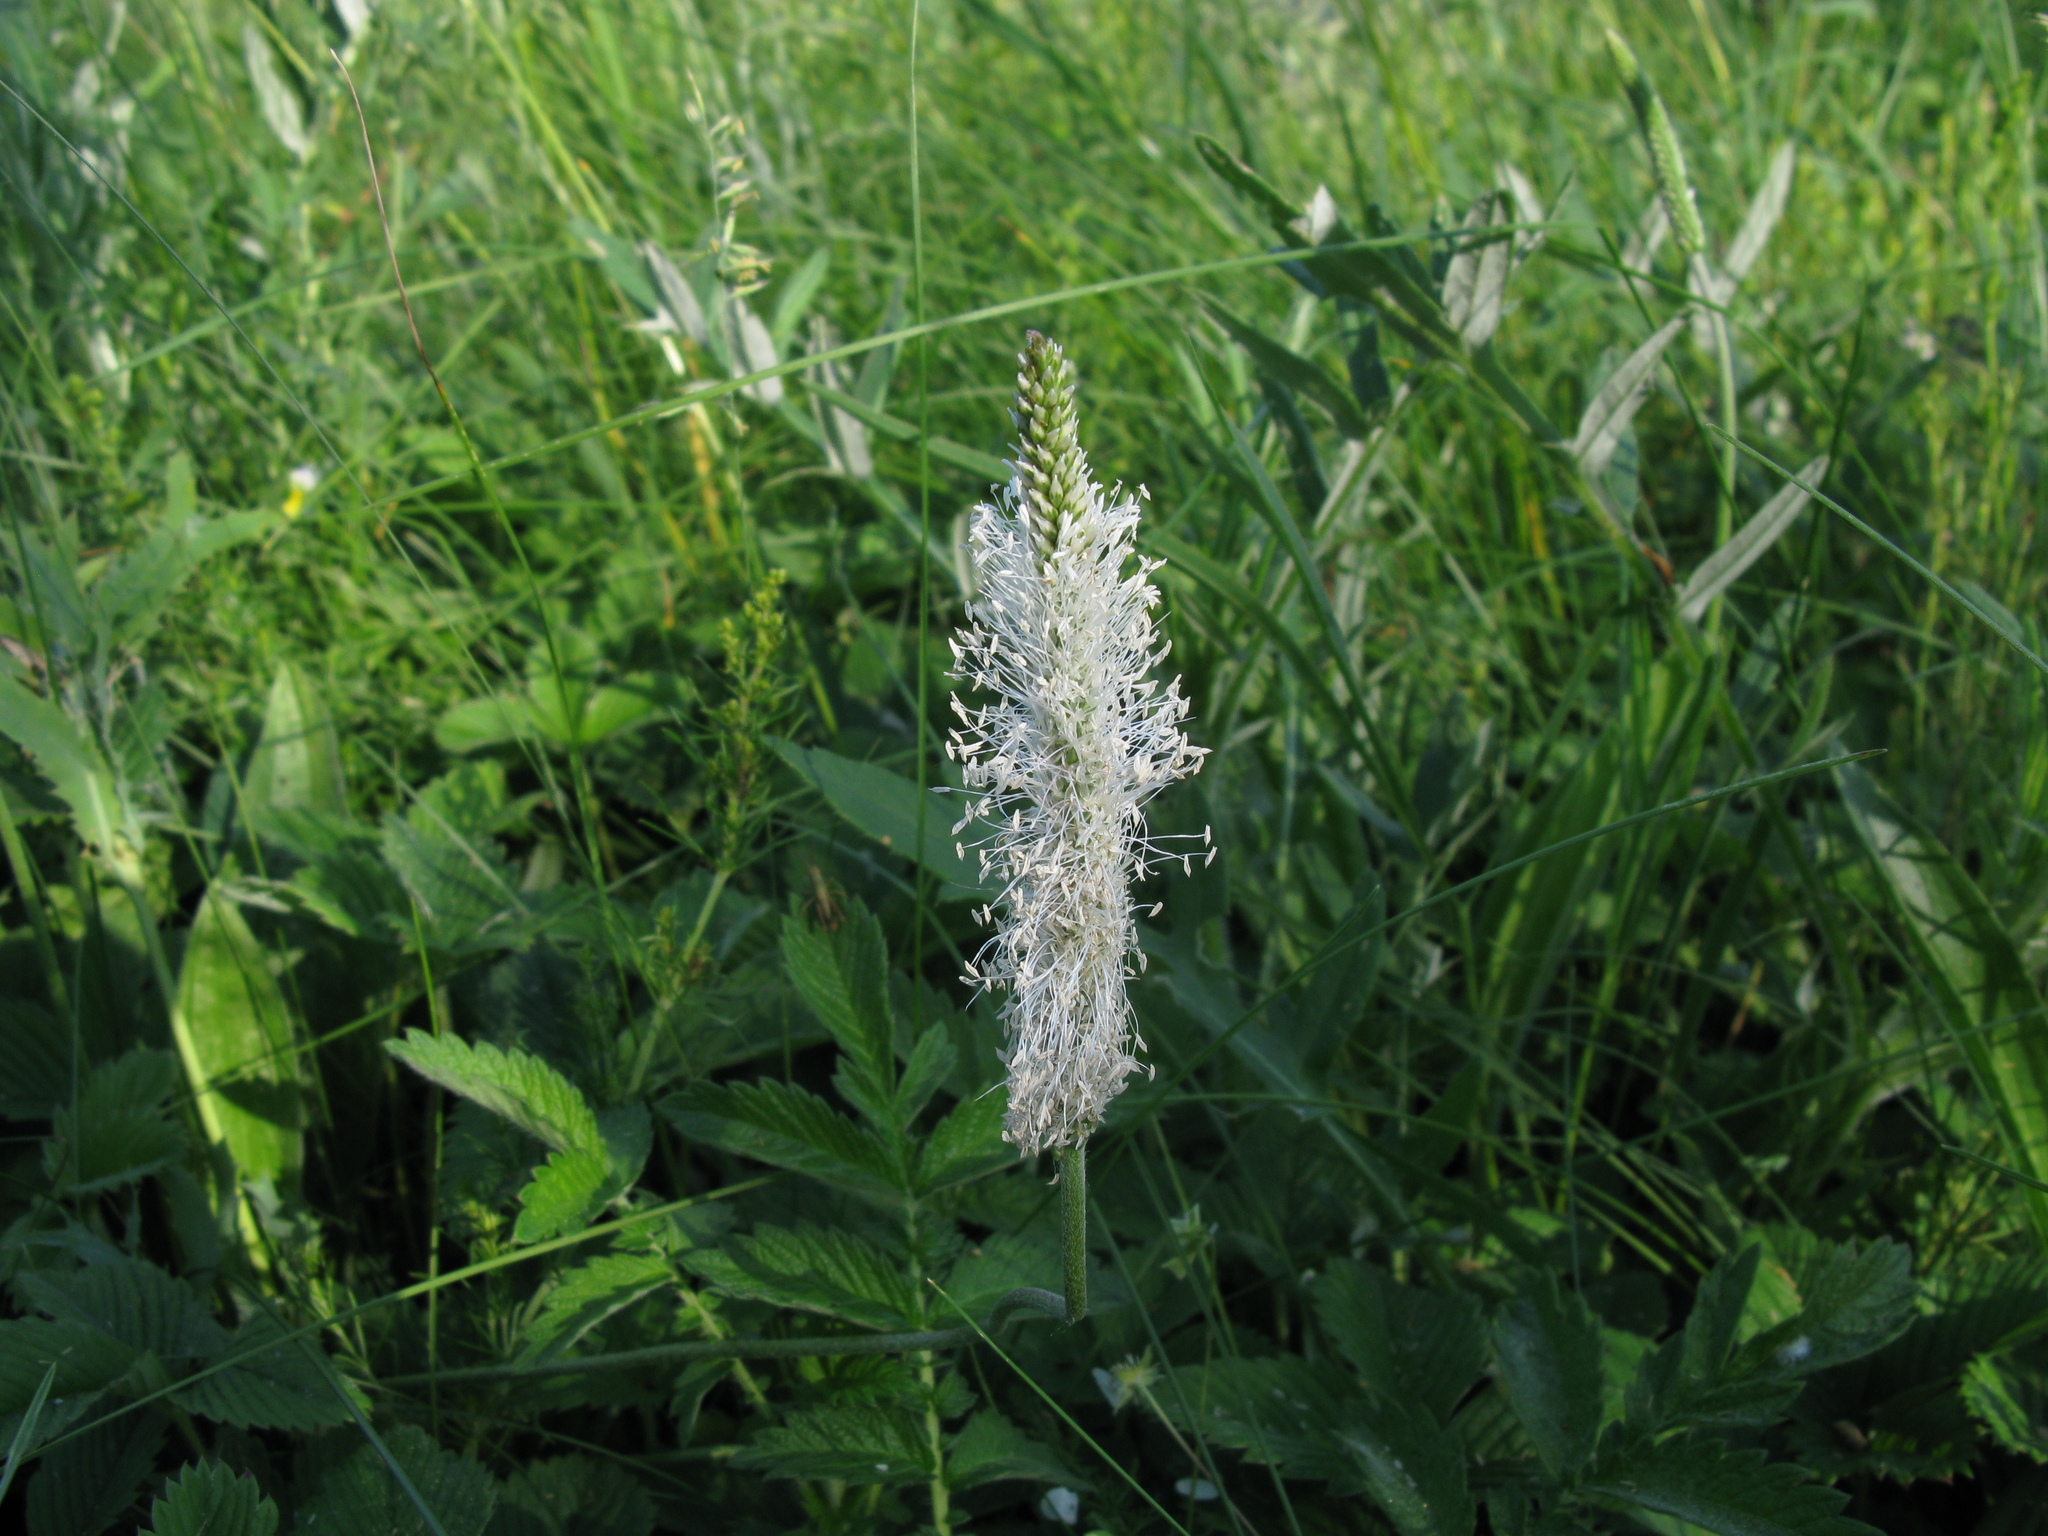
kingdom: Plantae
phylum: Tracheophyta
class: Magnoliopsida
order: Lamiales
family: Plantaginaceae
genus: Plantago
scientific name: Plantago media
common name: Hoary plantain
